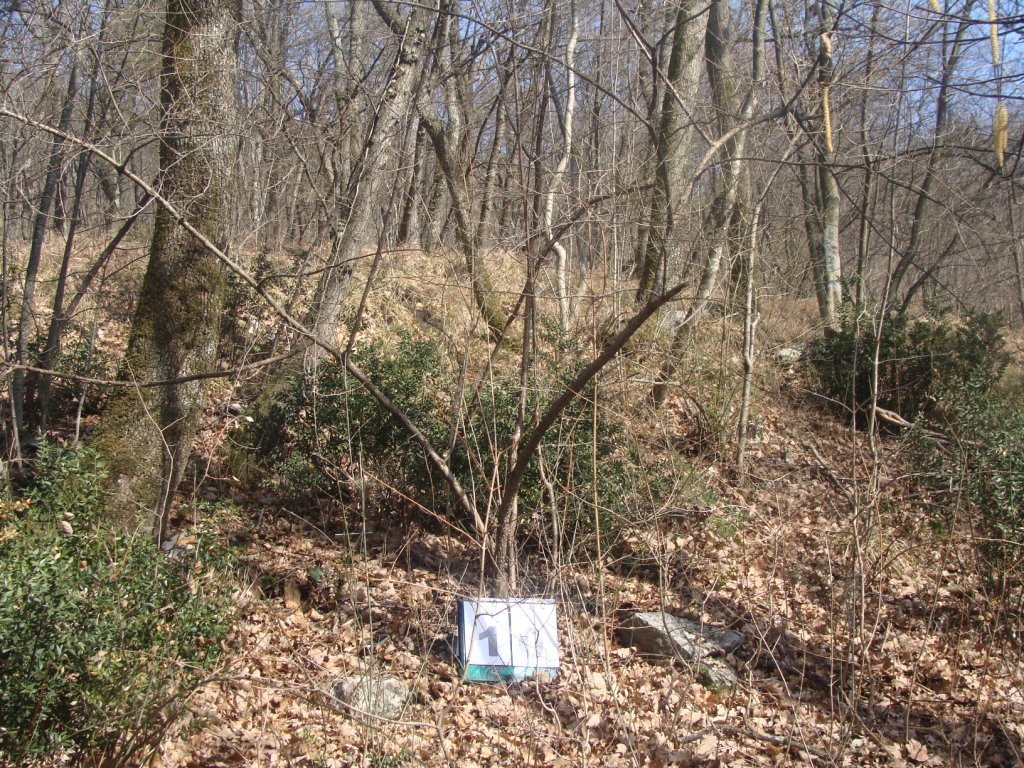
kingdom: Plantae
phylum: Tracheophyta
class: Magnoliopsida
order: Cornales
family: Cornaceae
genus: Cornus
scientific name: Cornus mas
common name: Cornelian-cherry
